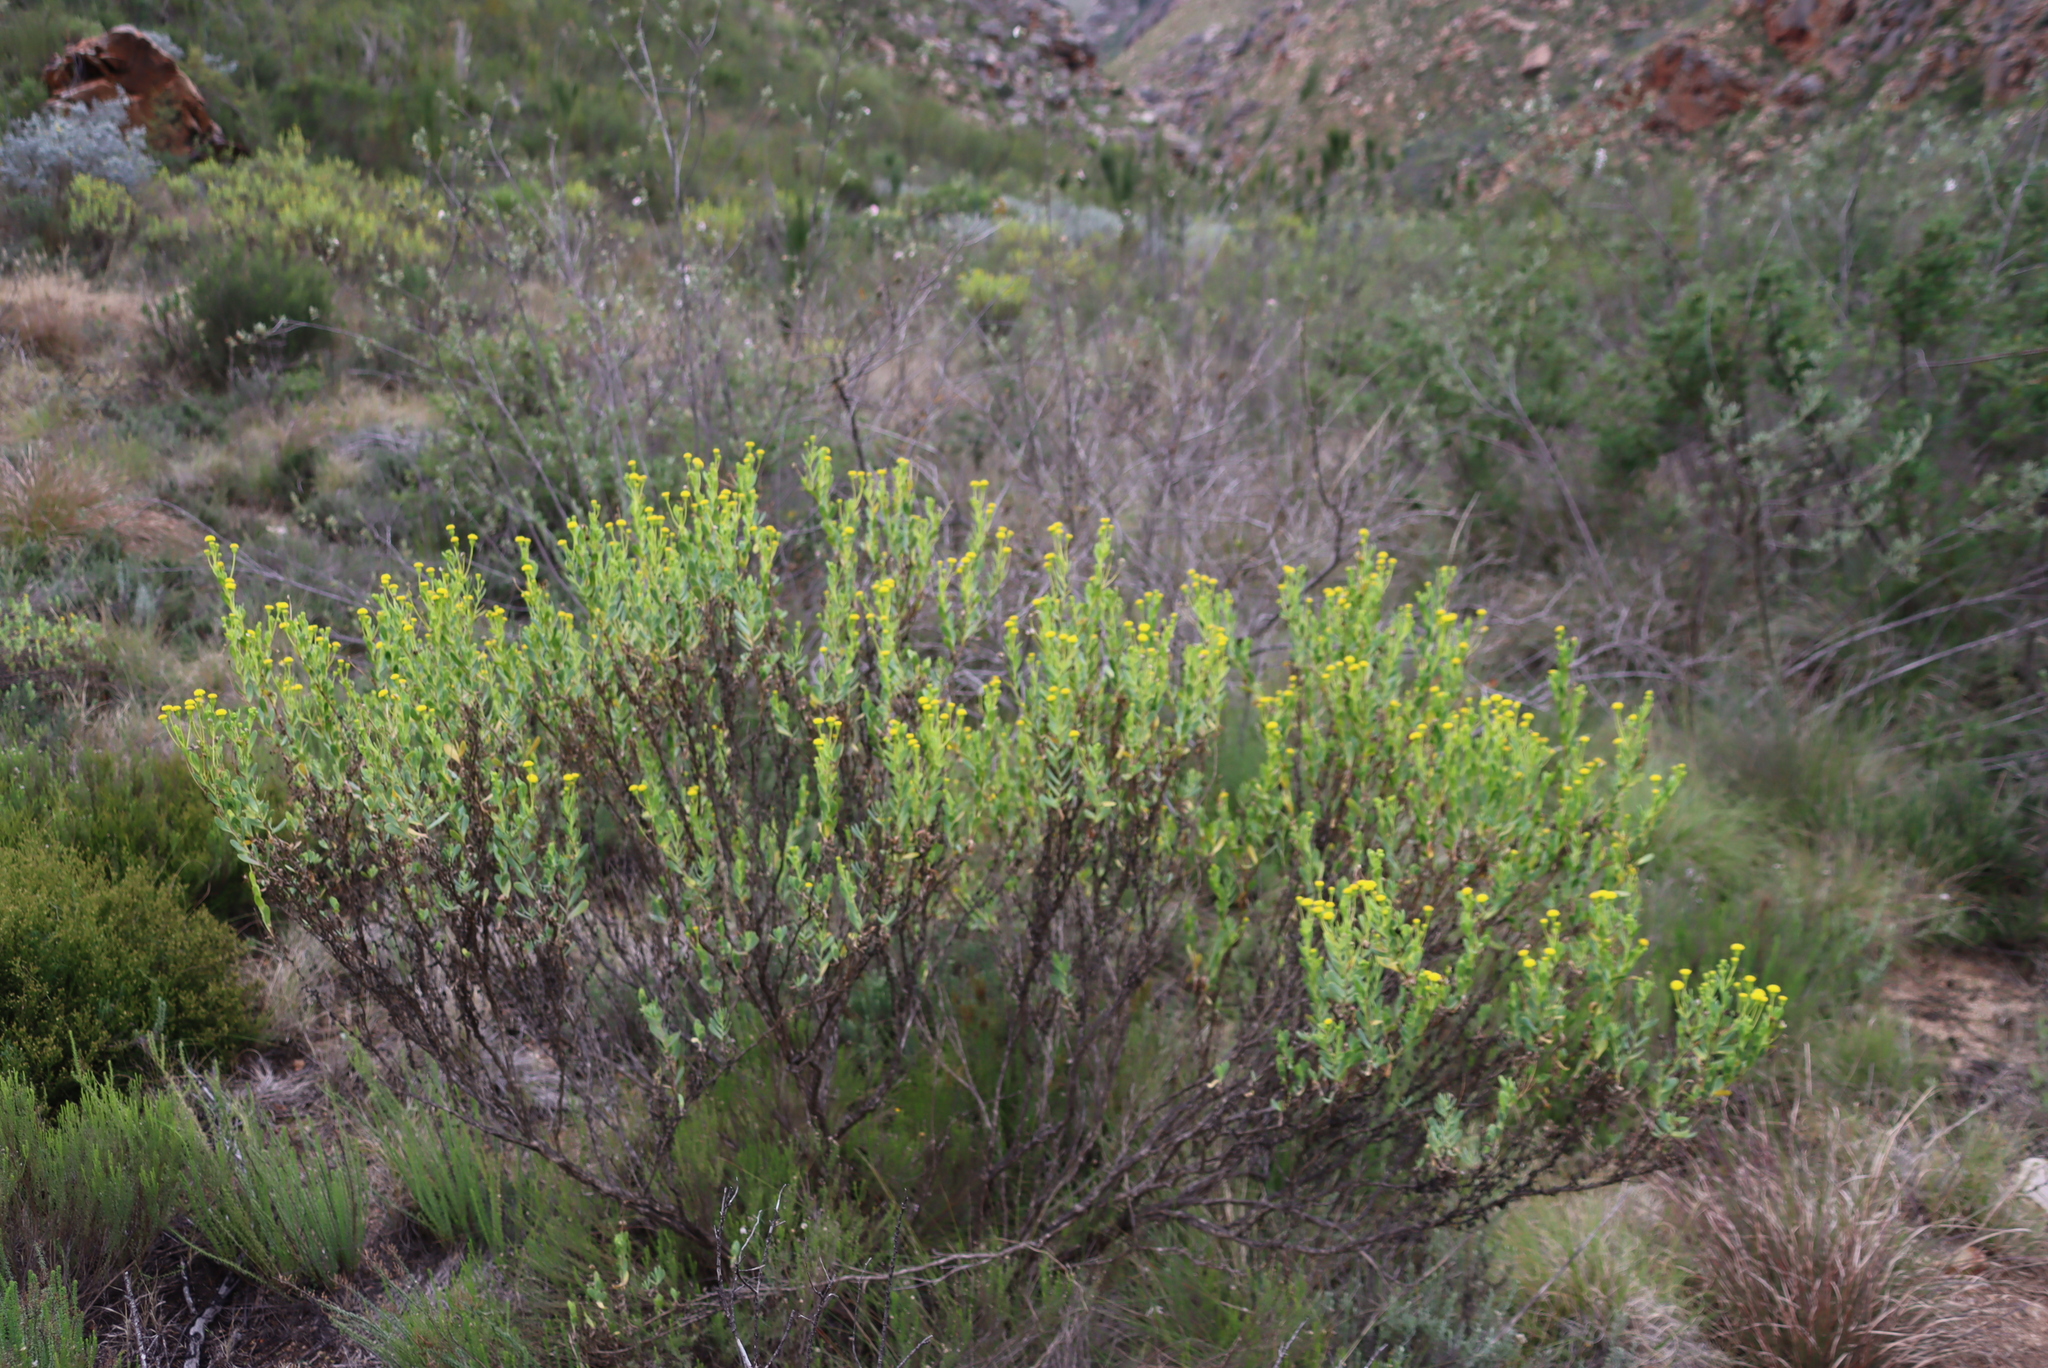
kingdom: Plantae
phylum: Tracheophyta
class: Magnoliopsida
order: Asterales
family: Asteraceae
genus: Hertia
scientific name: Hertia kraussii
